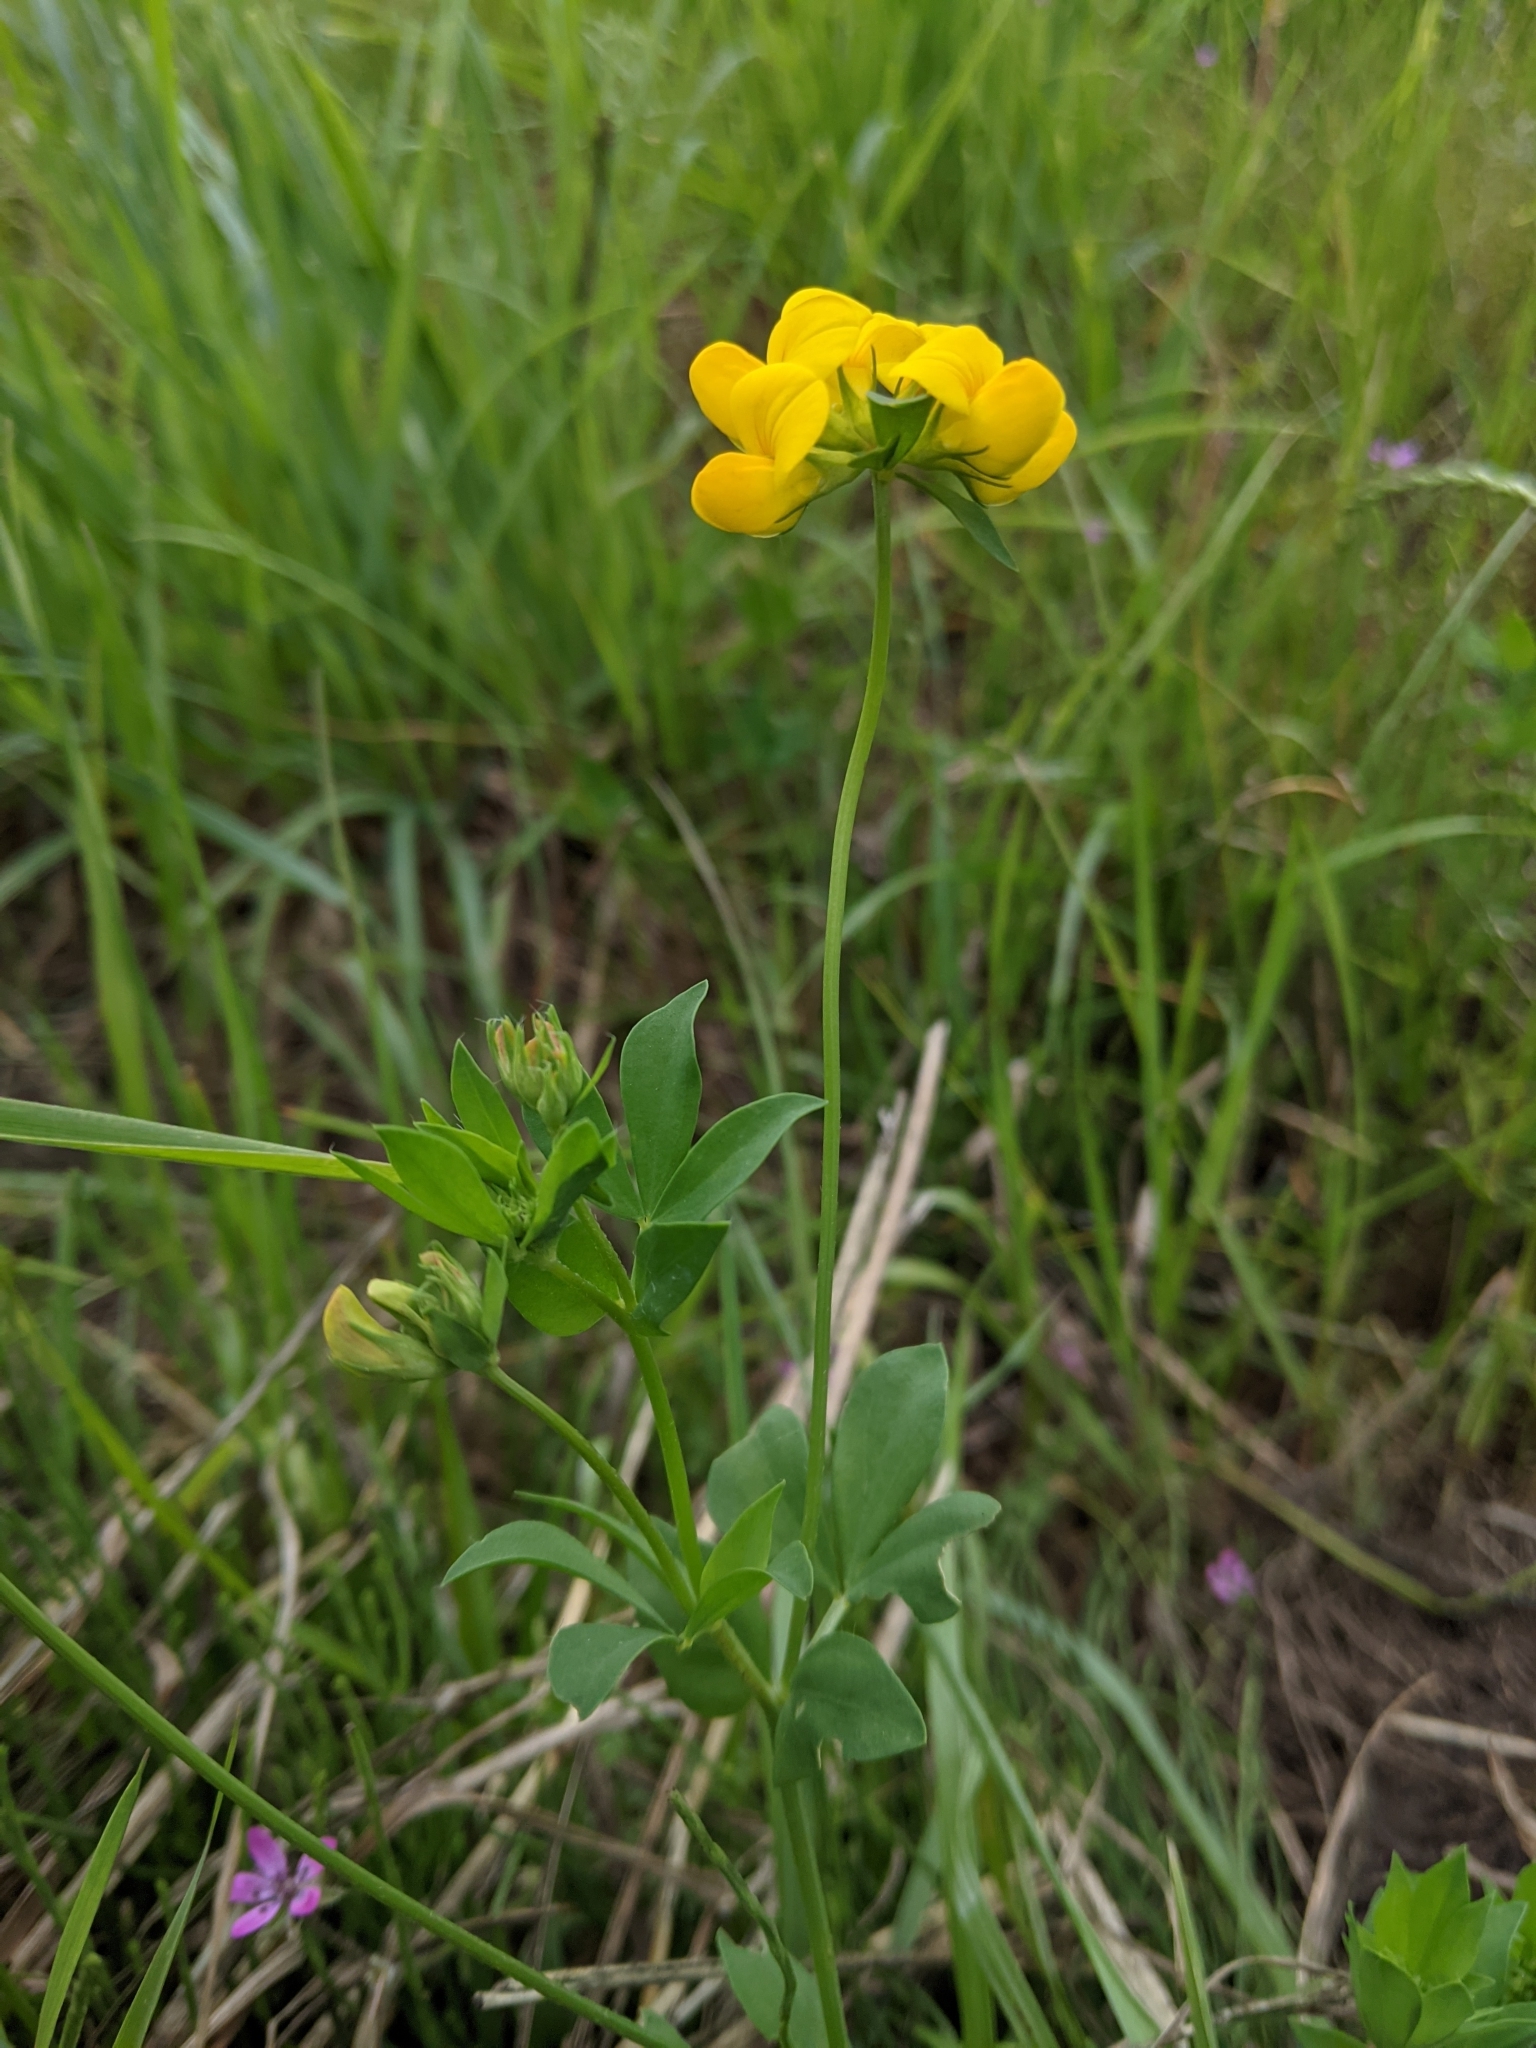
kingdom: Plantae
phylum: Tracheophyta
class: Magnoliopsida
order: Fabales
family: Fabaceae
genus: Lotus
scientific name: Lotus corniculatus
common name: Common bird's-foot-trefoil
